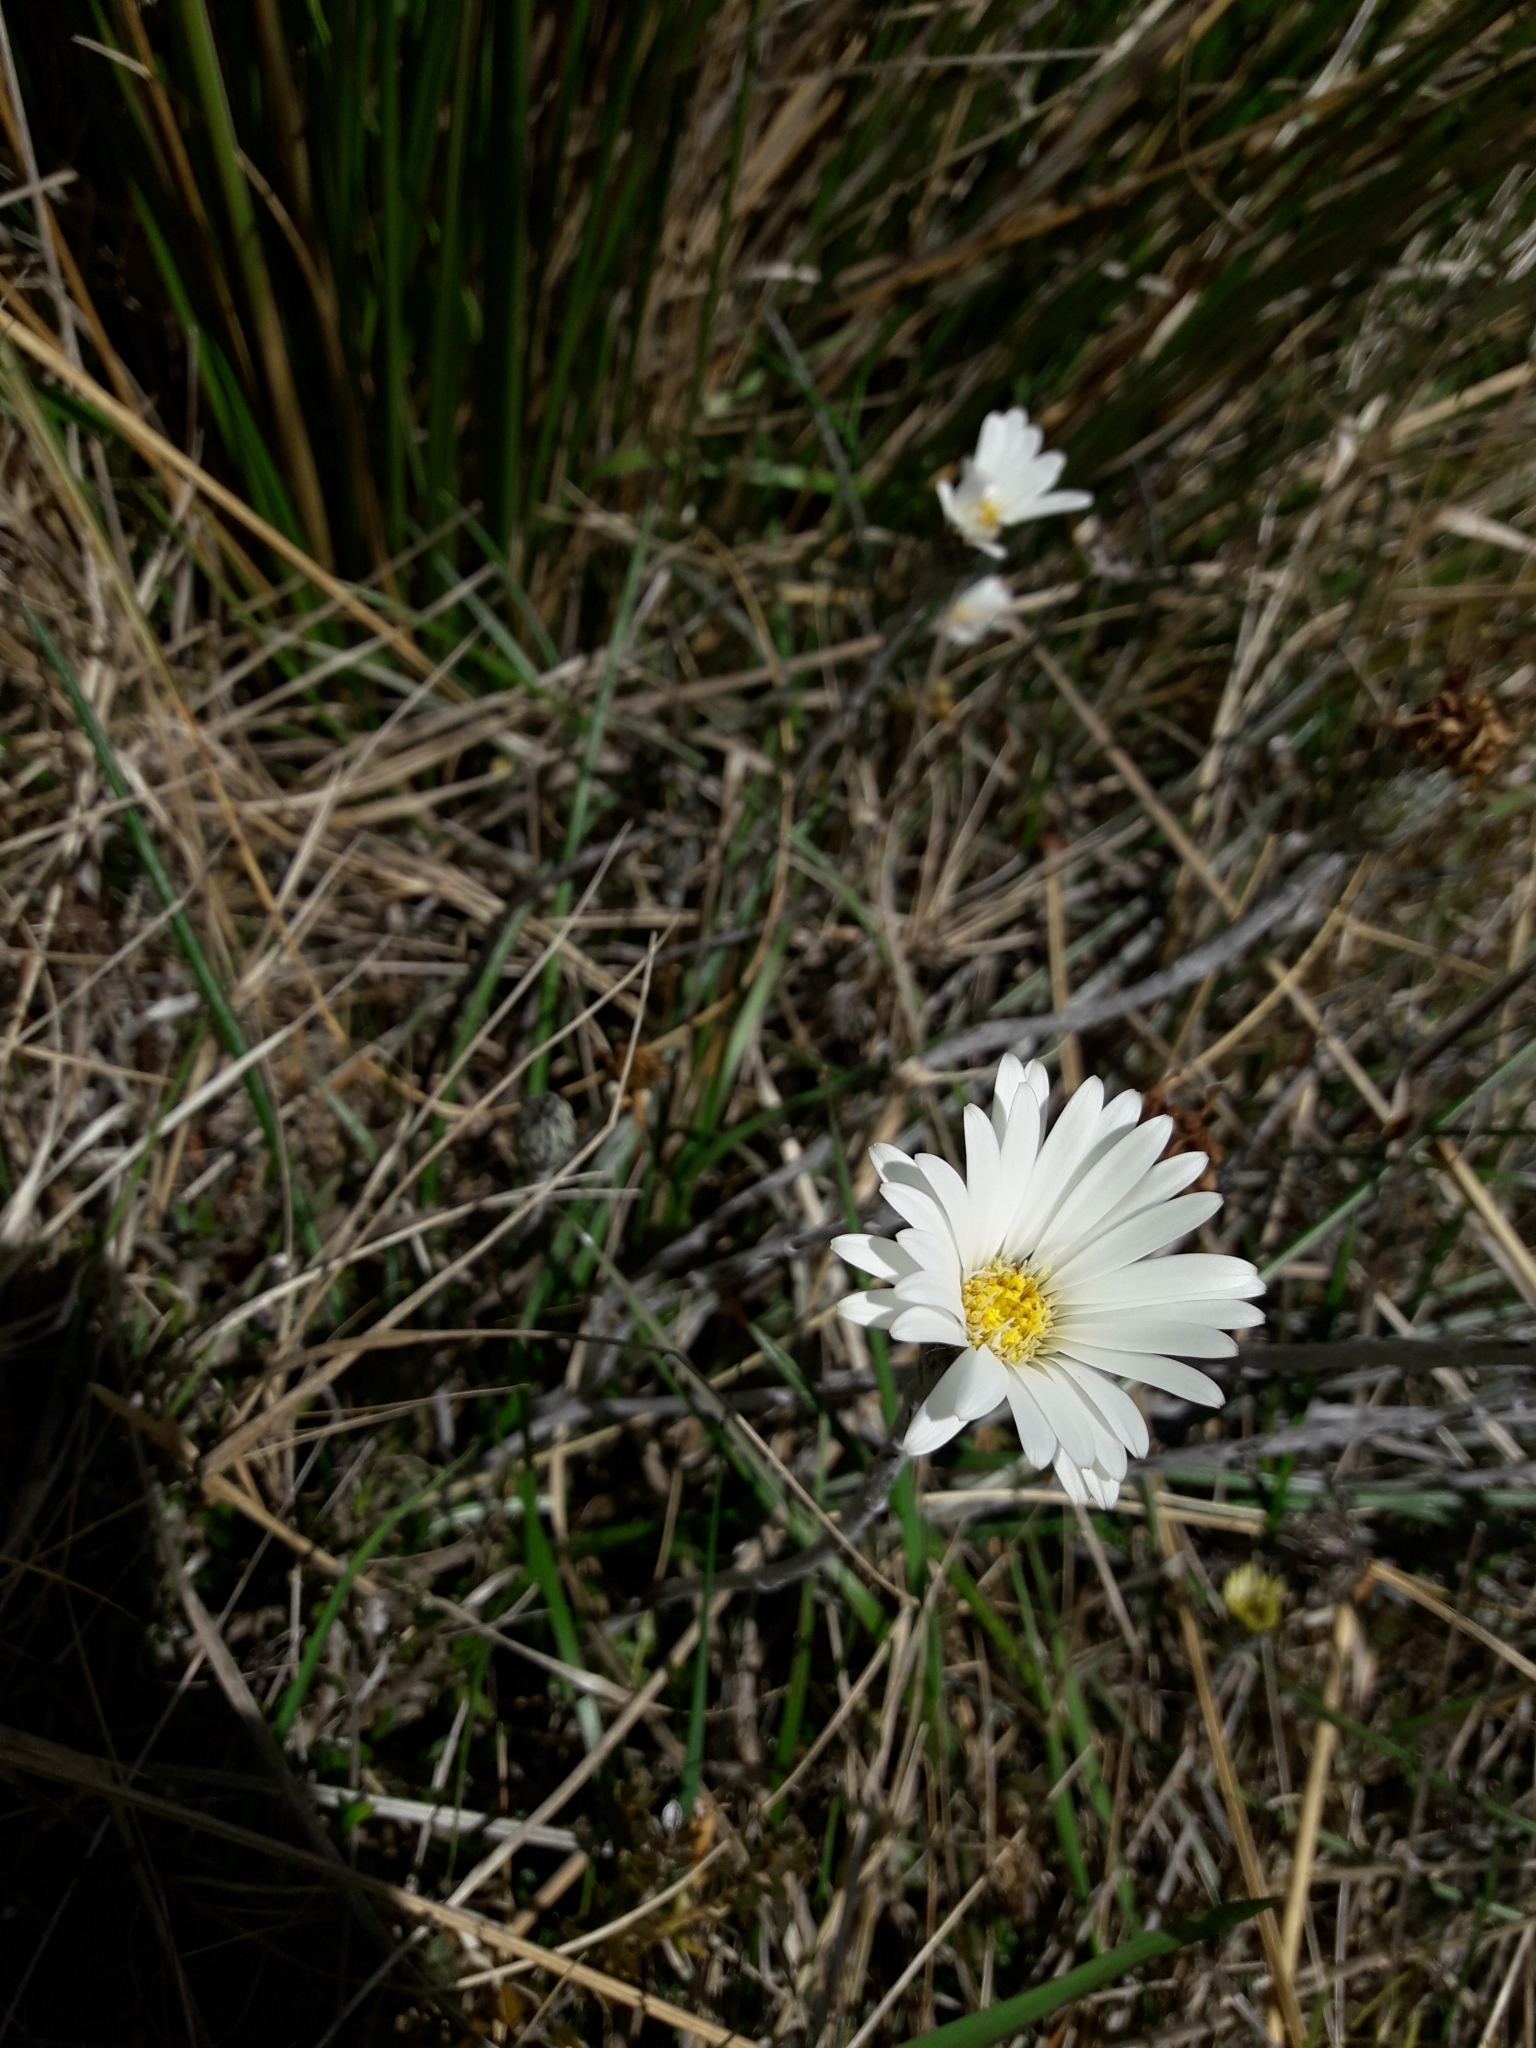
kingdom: Plantae
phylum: Tracheophyta
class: Magnoliopsida
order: Asterales
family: Asteraceae
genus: Celmisia
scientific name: Celmisia gracilenta
